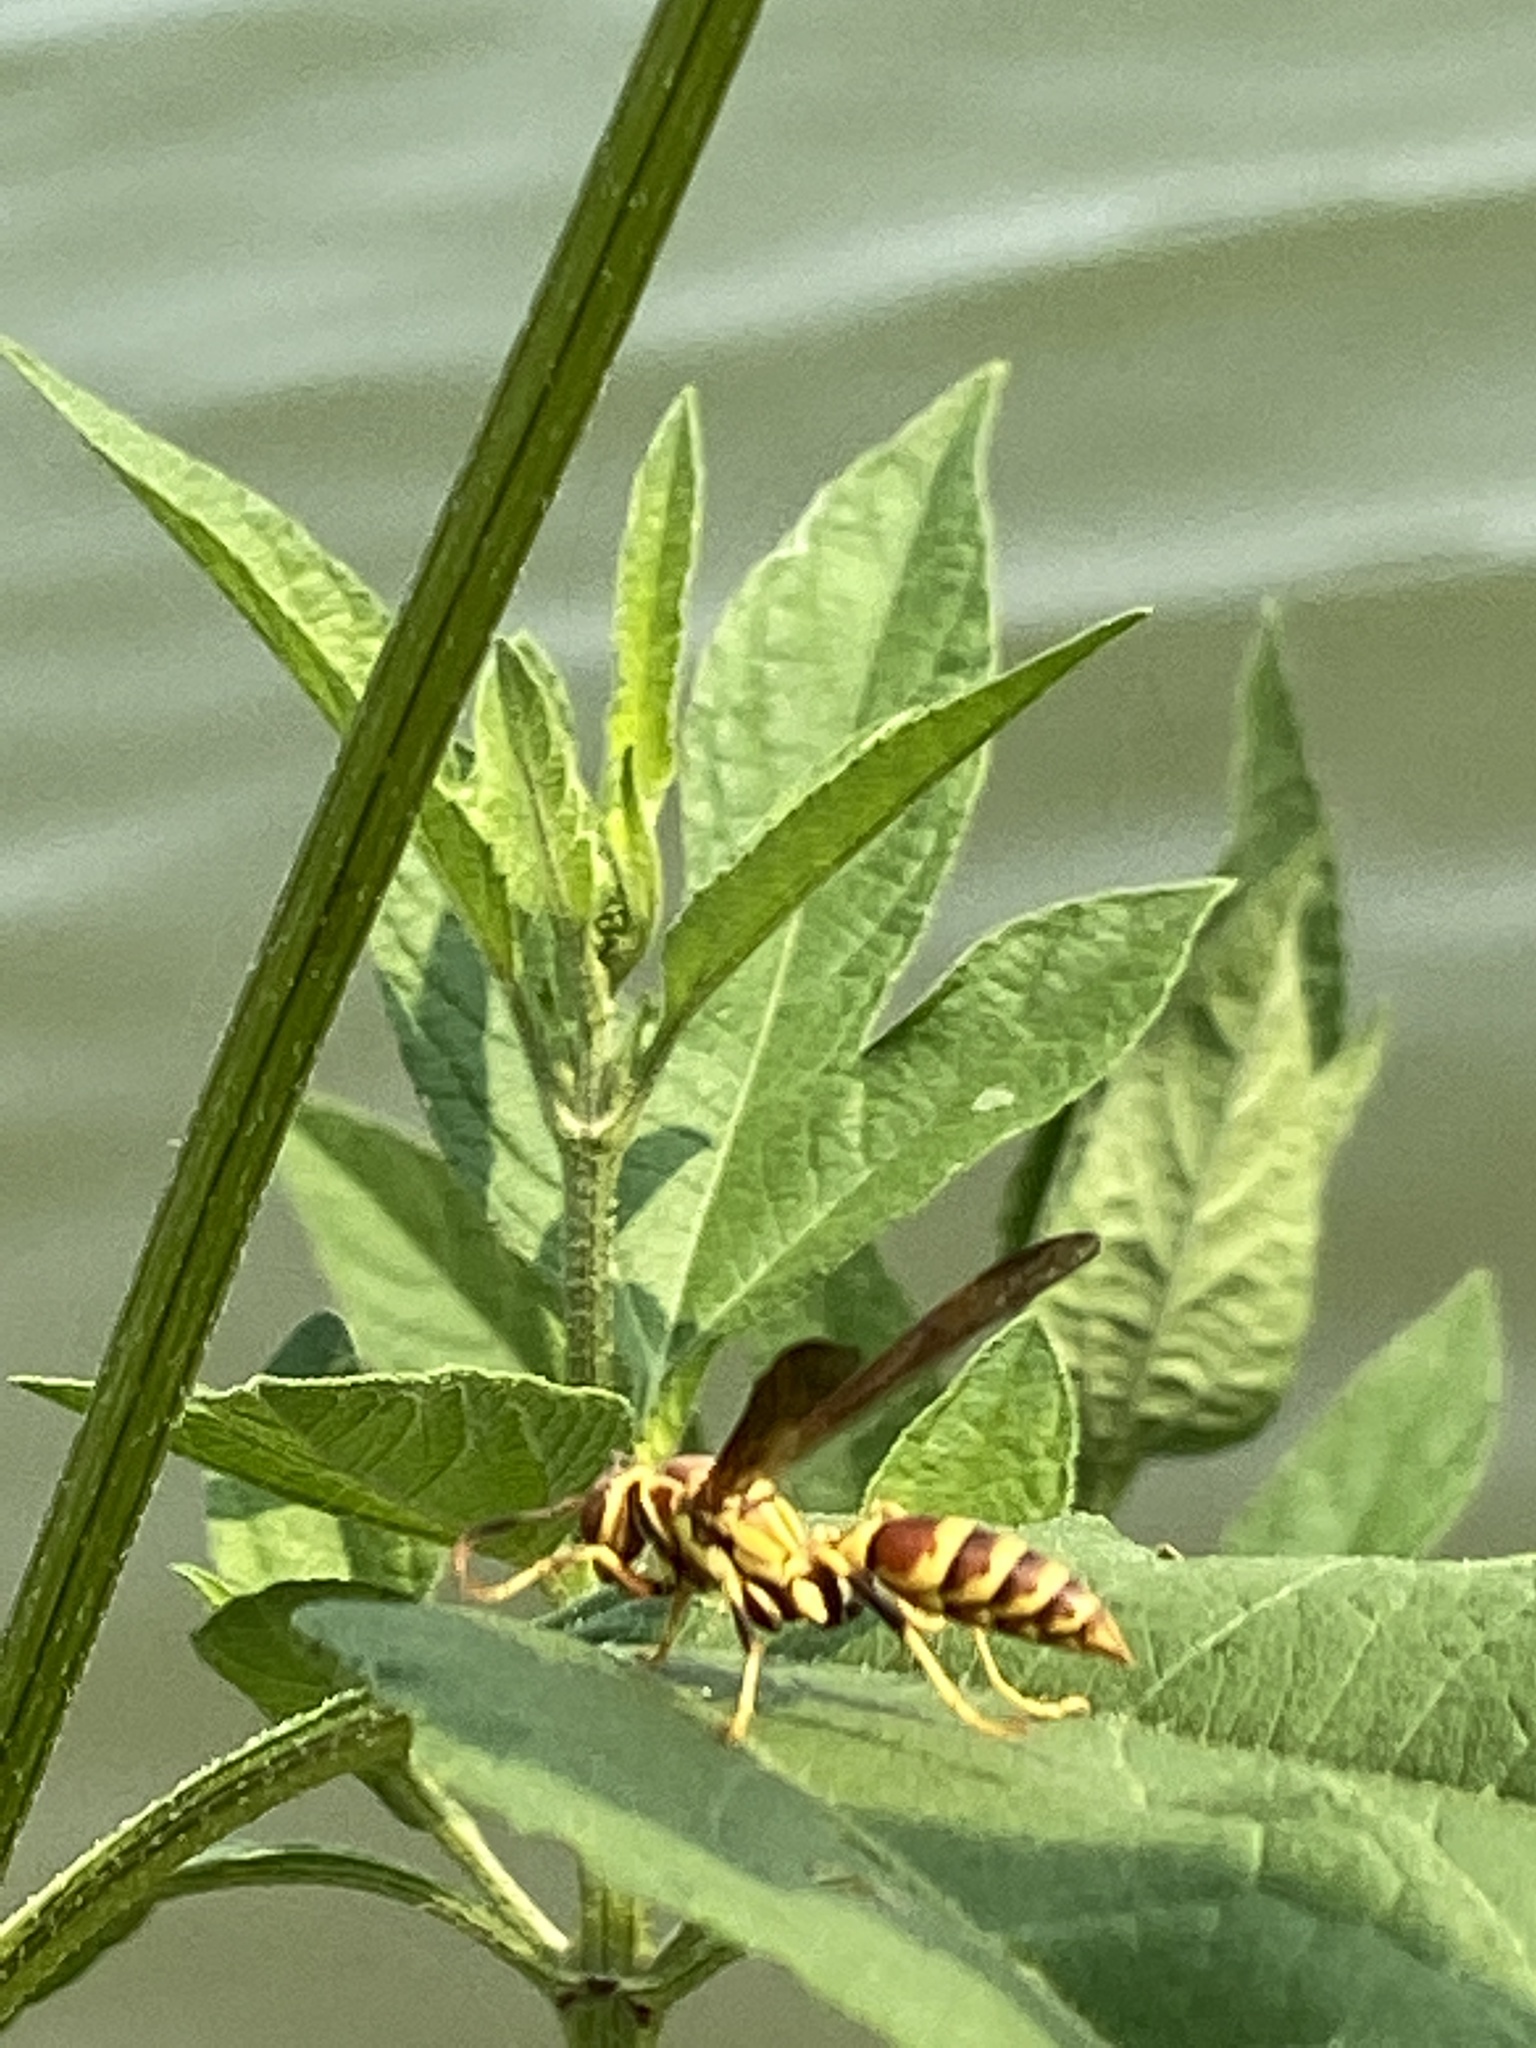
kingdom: Animalia
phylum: Arthropoda
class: Insecta
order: Hymenoptera
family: Eumenidae
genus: Polistes
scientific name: Polistes exclamans
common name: Paper wasp
